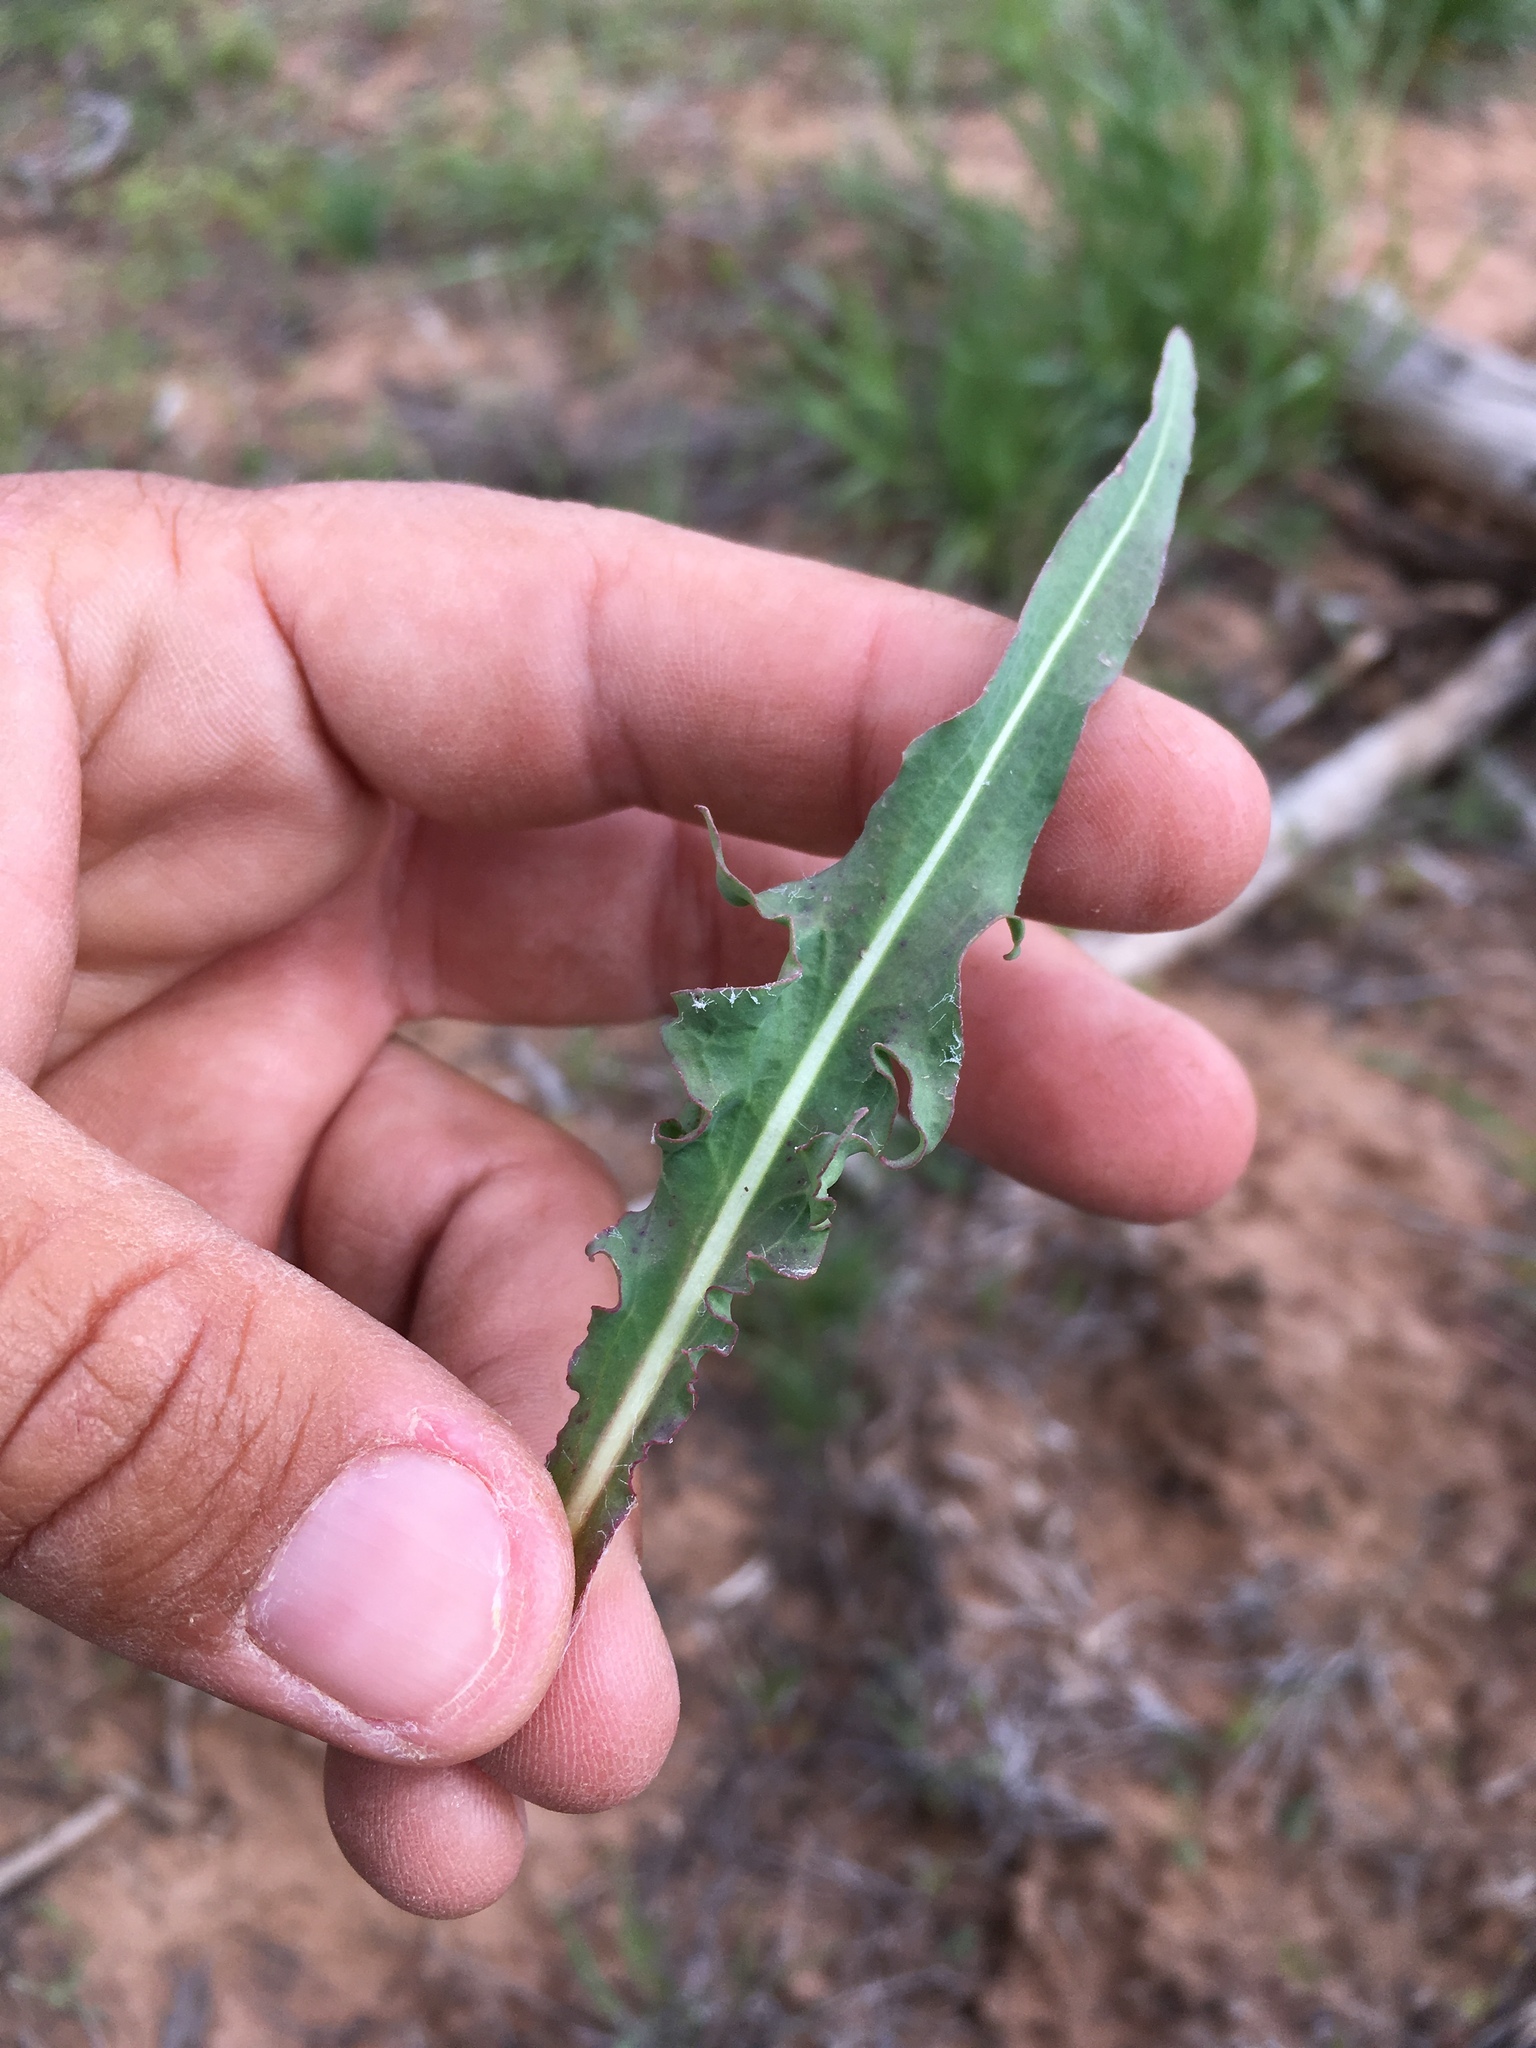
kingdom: Plantae
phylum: Tracheophyta
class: Magnoliopsida
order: Asterales
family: Asteraceae
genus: Agoseris
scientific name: Agoseris parviflora
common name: Steppe agoseris
